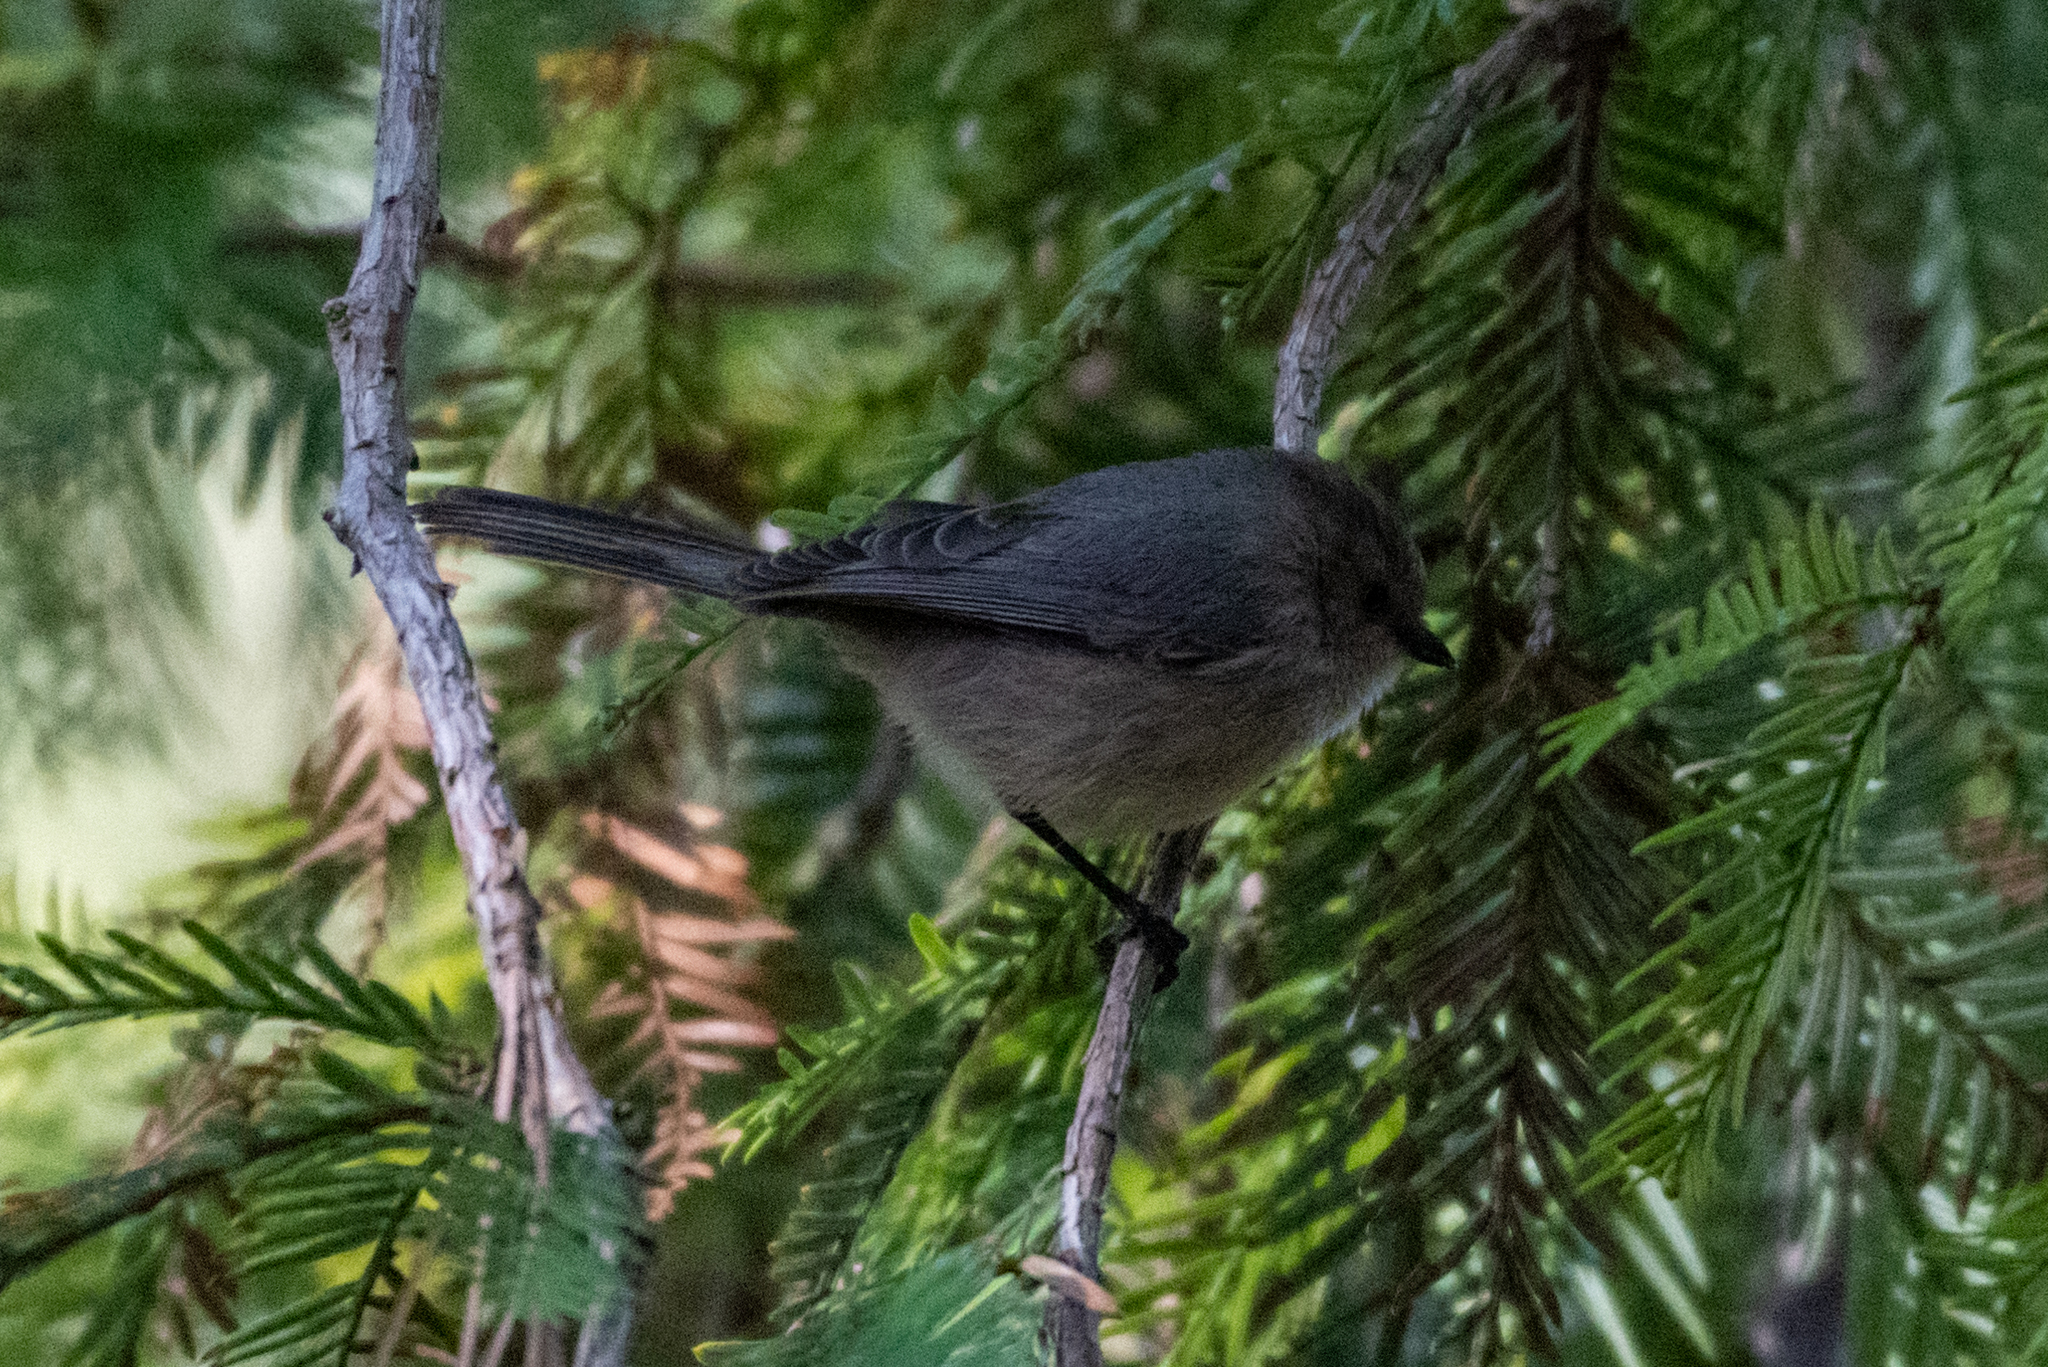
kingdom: Animalia
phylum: Chordata
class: Aves
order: Passeriformes
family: Aegithalidae
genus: Psaltriparus
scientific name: Psaltriparus minimus
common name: American bushtit
